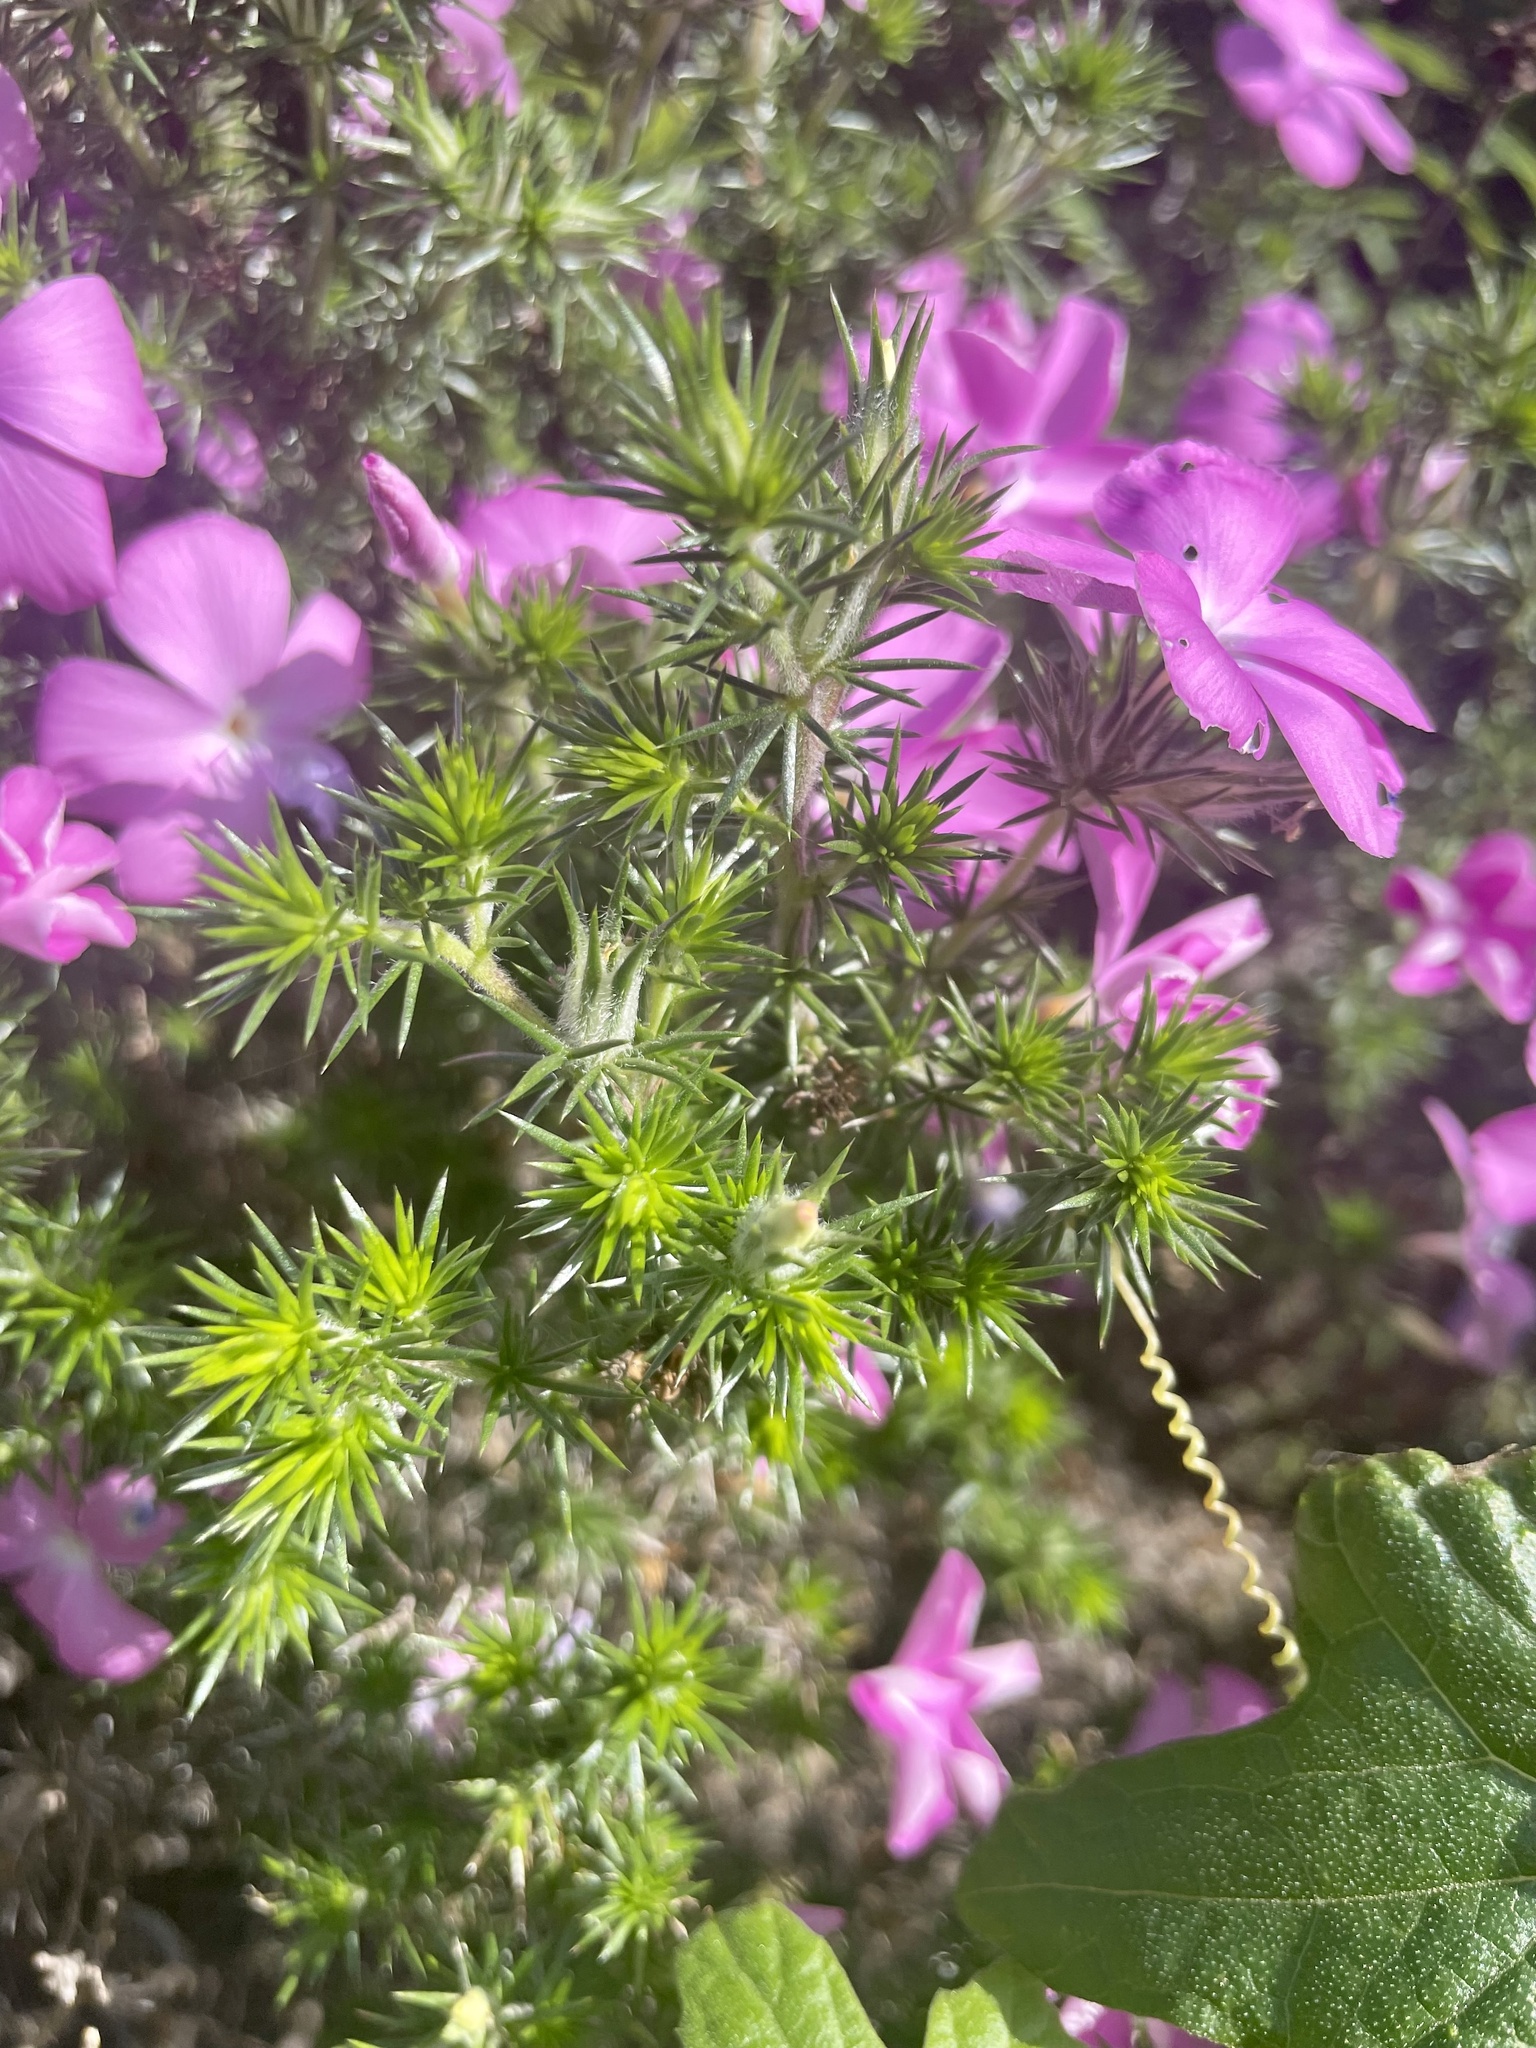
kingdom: Plantae
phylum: Tracheophyta
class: Magnoliopsida
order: Ericales
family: Polemoniaceae
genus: Linanthus
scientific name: Linanthus californicus
